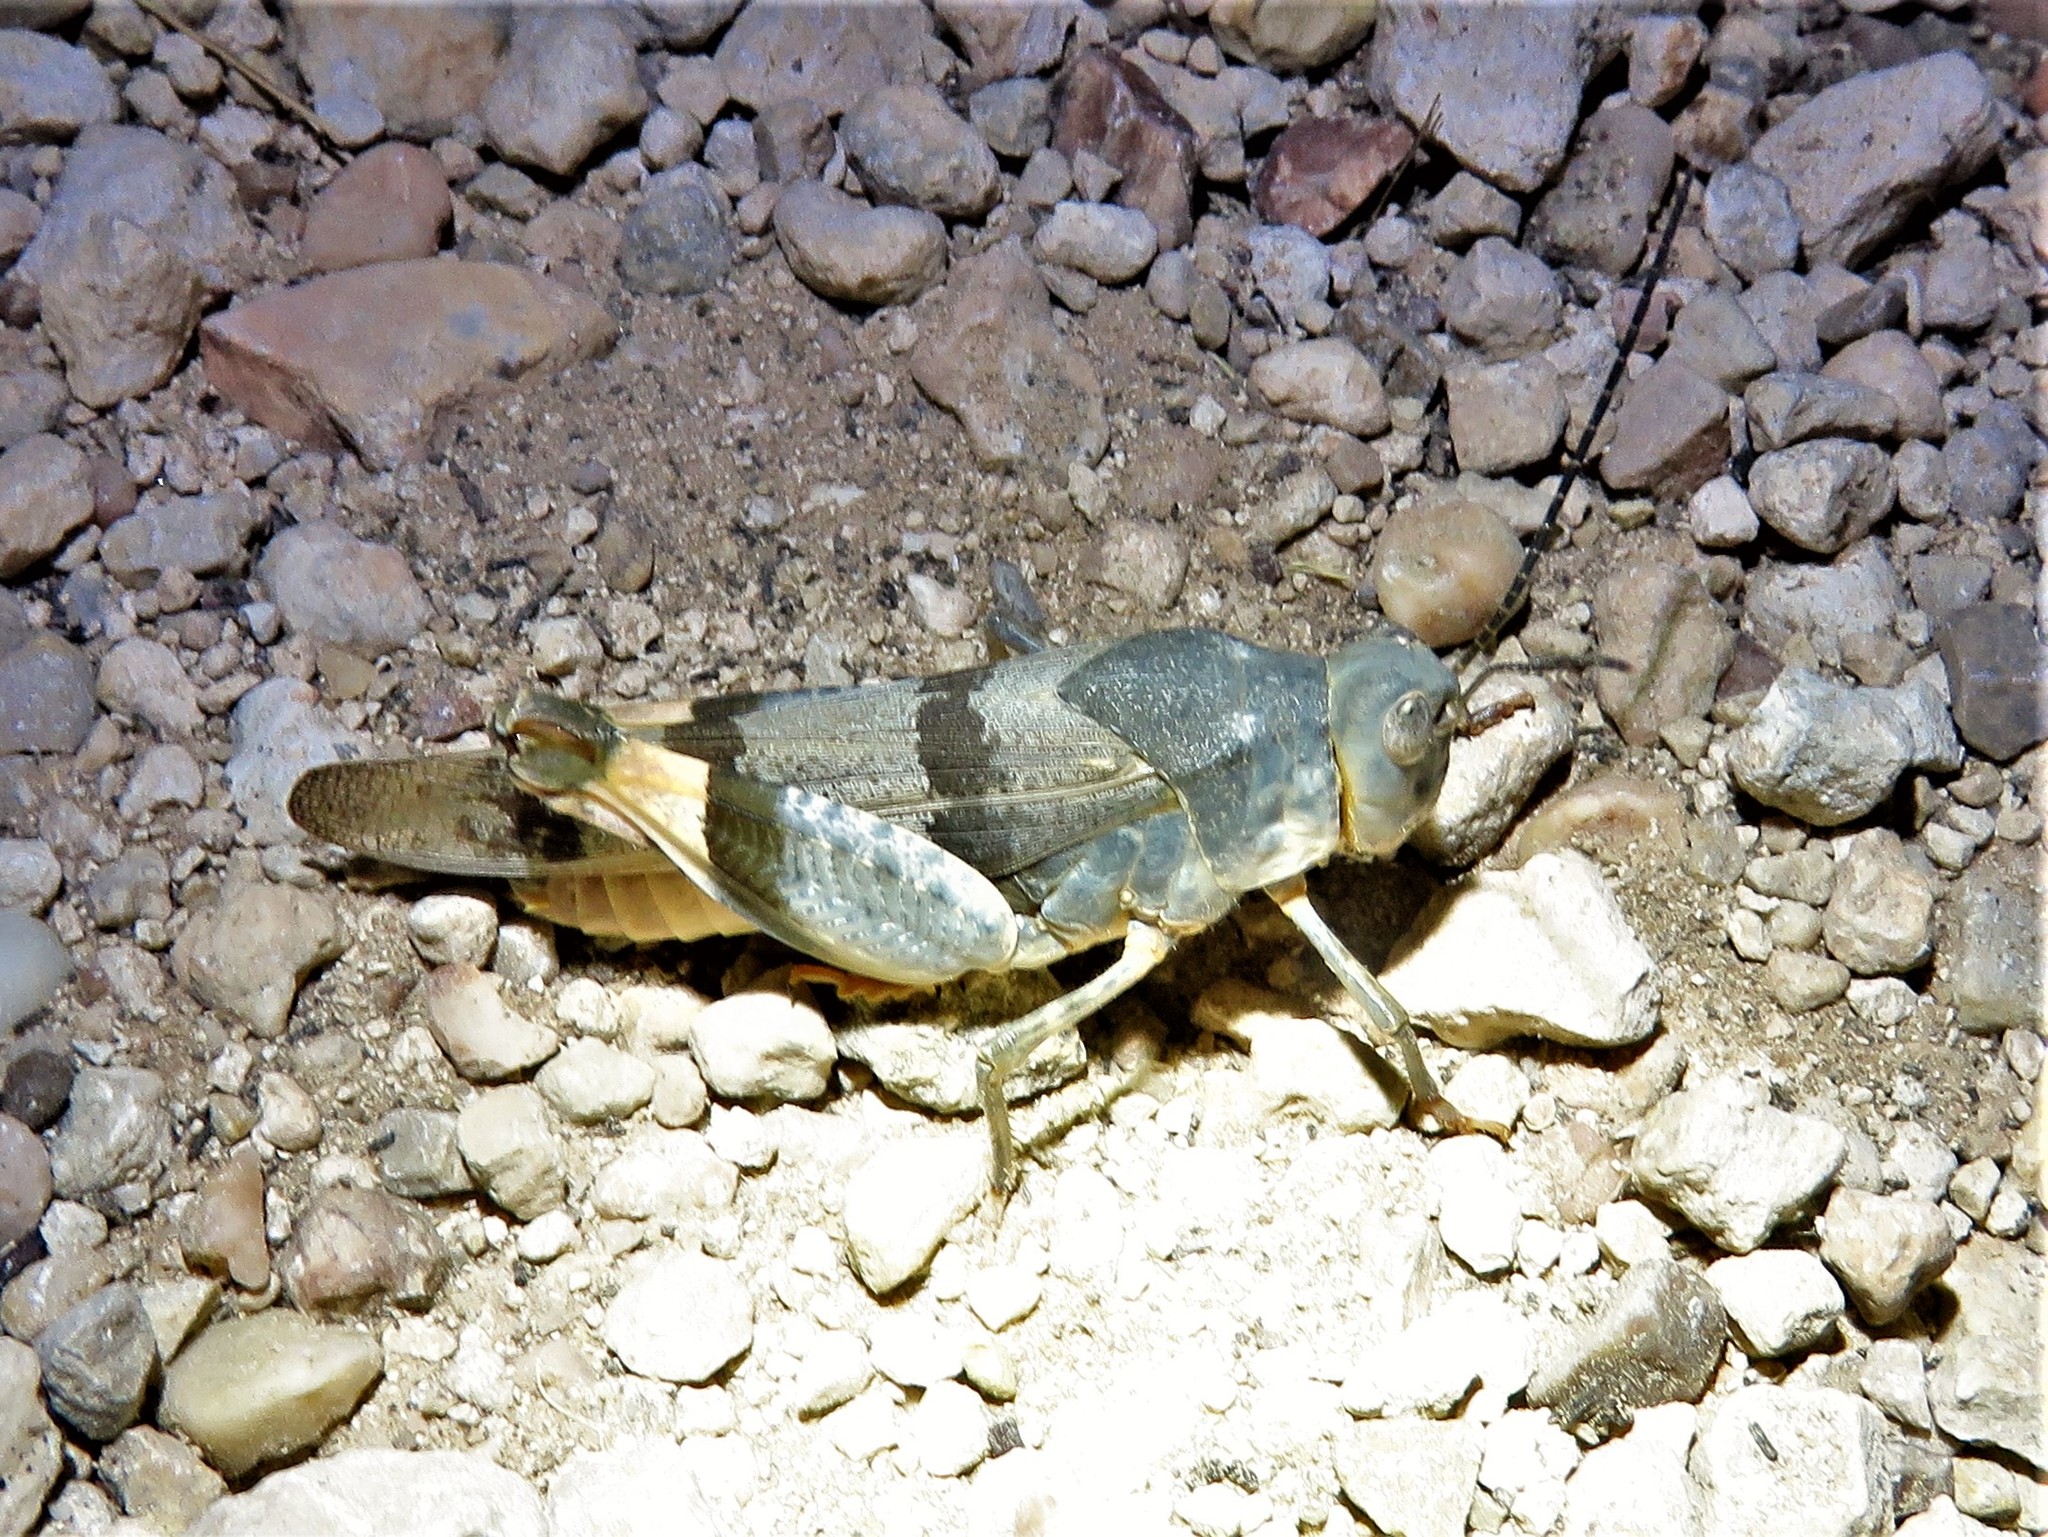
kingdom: Animalia
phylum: Arthropoda
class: Insecta
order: Orthoptera
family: Acrididae
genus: Hadrotettix
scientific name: Hadrotettix trifasciatus
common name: Threebanded grasshopper
